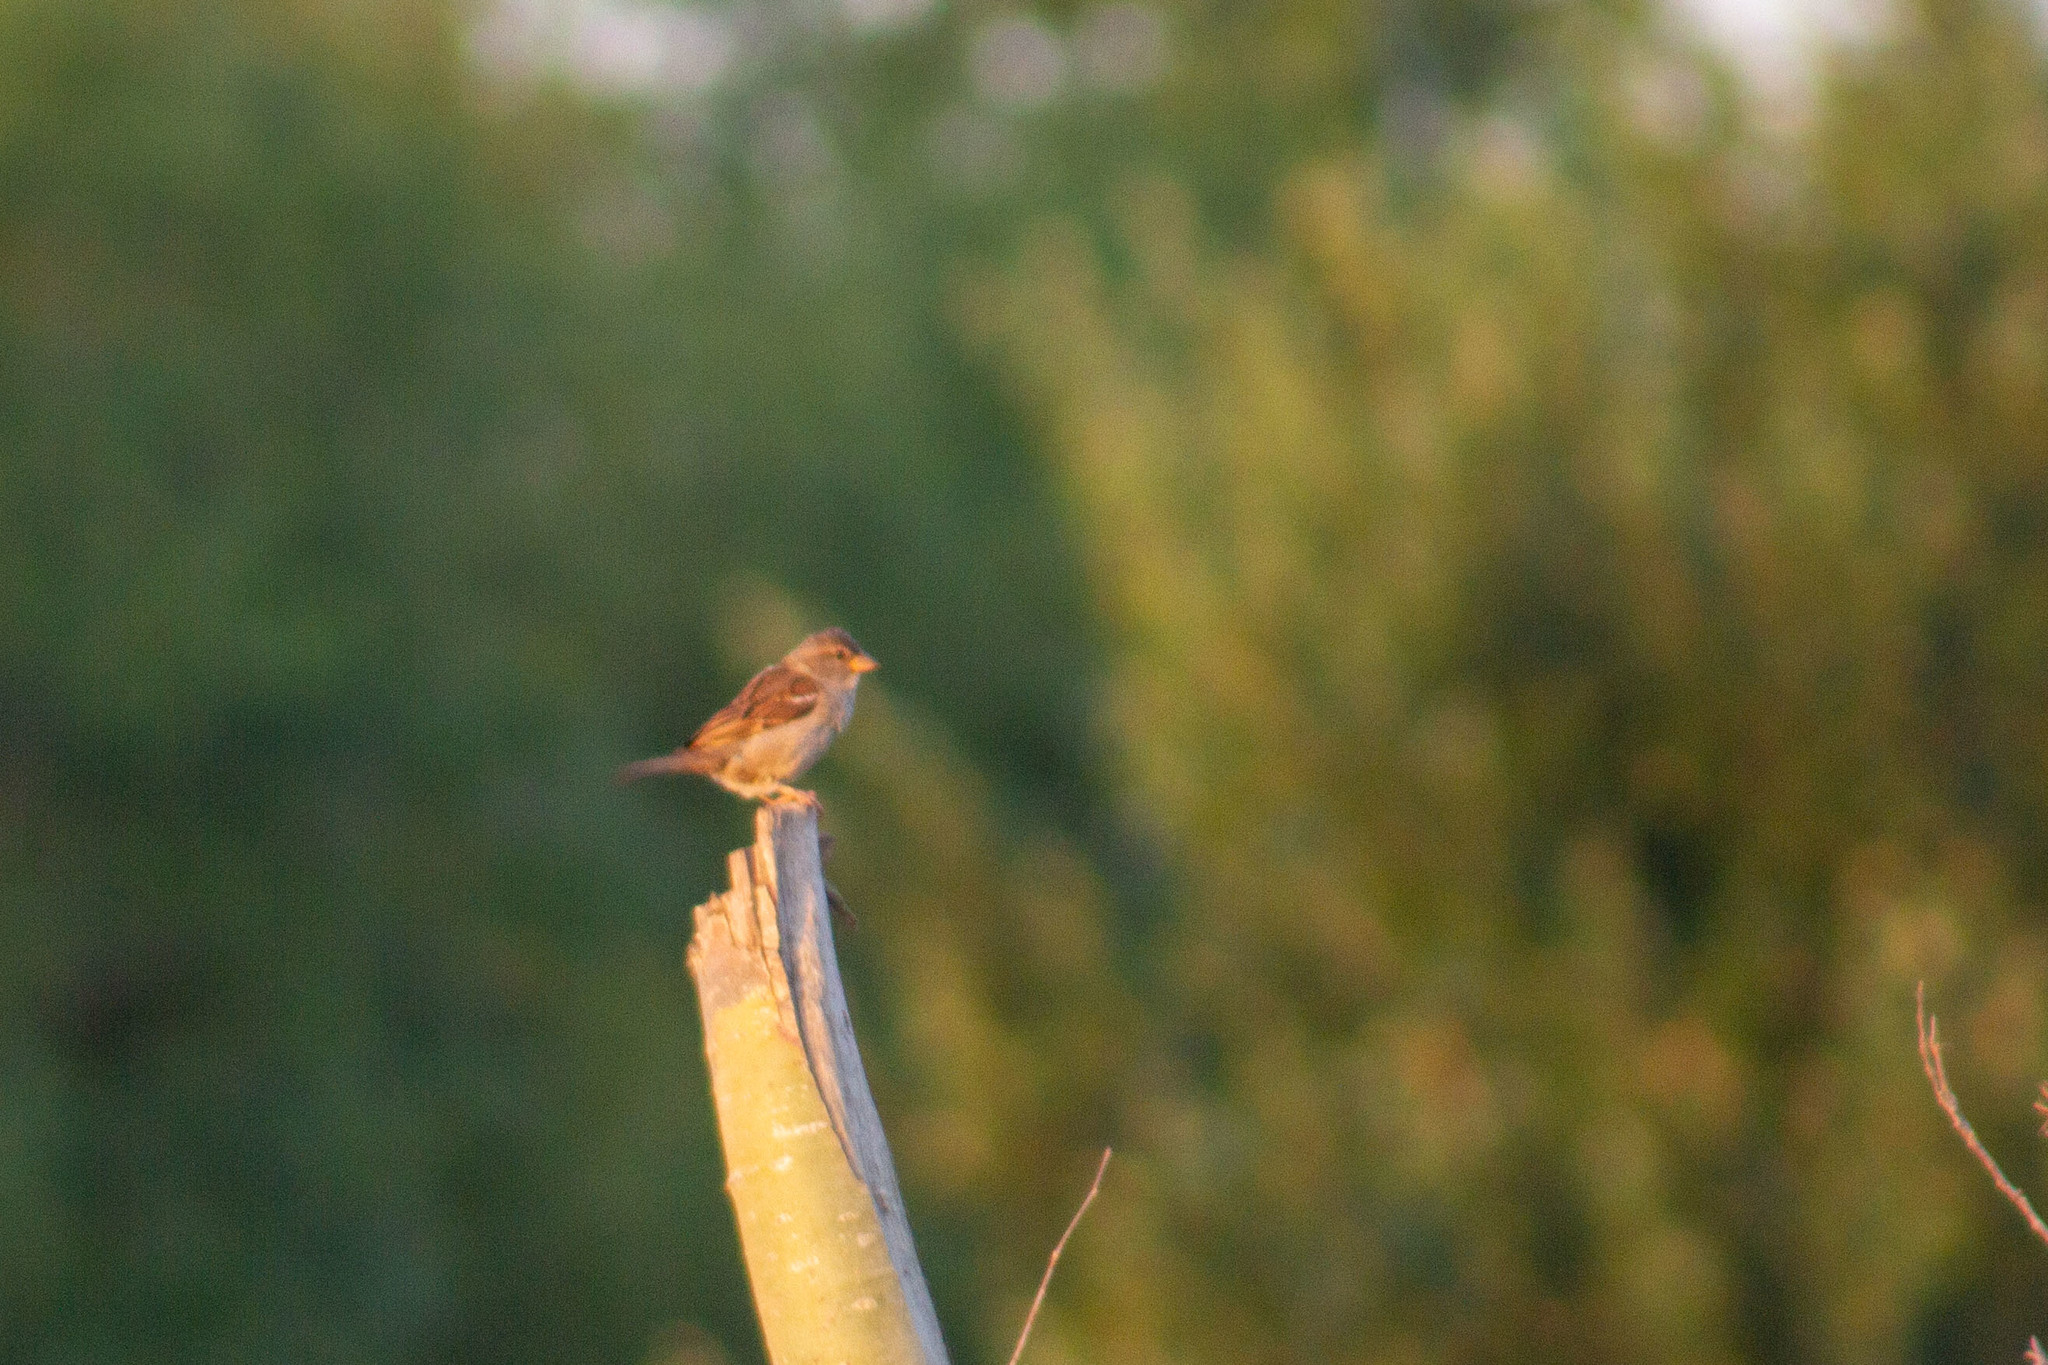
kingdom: Animalia
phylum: Chordata
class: Aves
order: Passeriformes
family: Passeridae
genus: Passer
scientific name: Passer domesticus
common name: House sparrow
